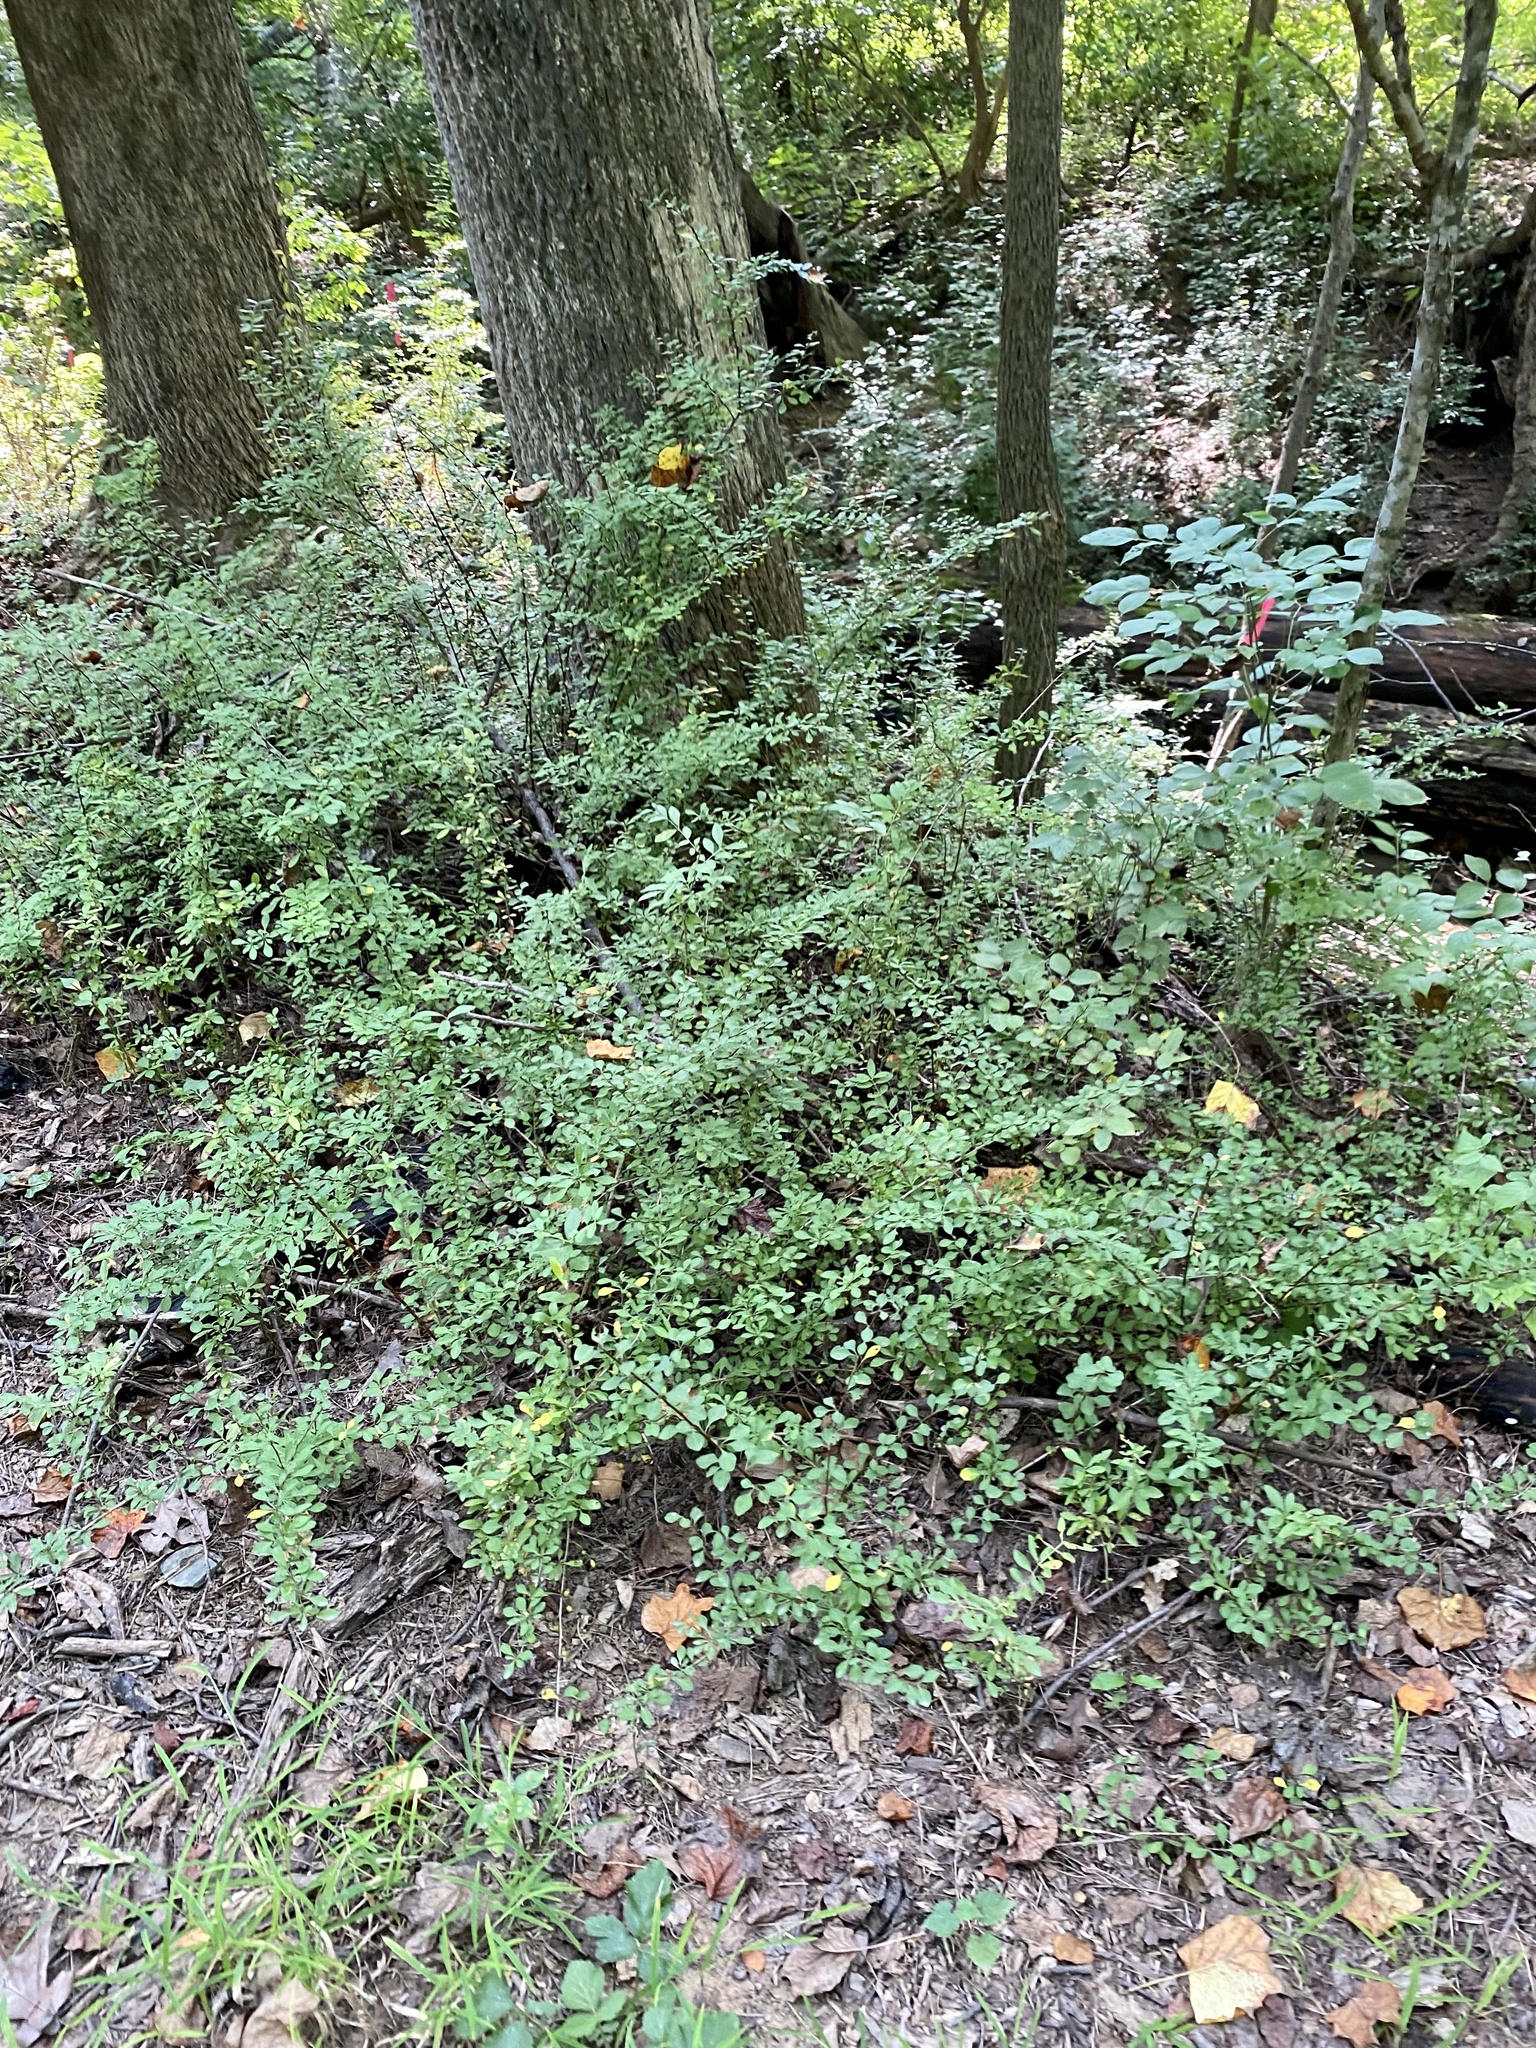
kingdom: Plantae
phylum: Tracheophyta
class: Magnoliopsida
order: Ranunculales
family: Berberidaceae
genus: Berberis
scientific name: Berberis thunbergii
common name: Japanese barberry
